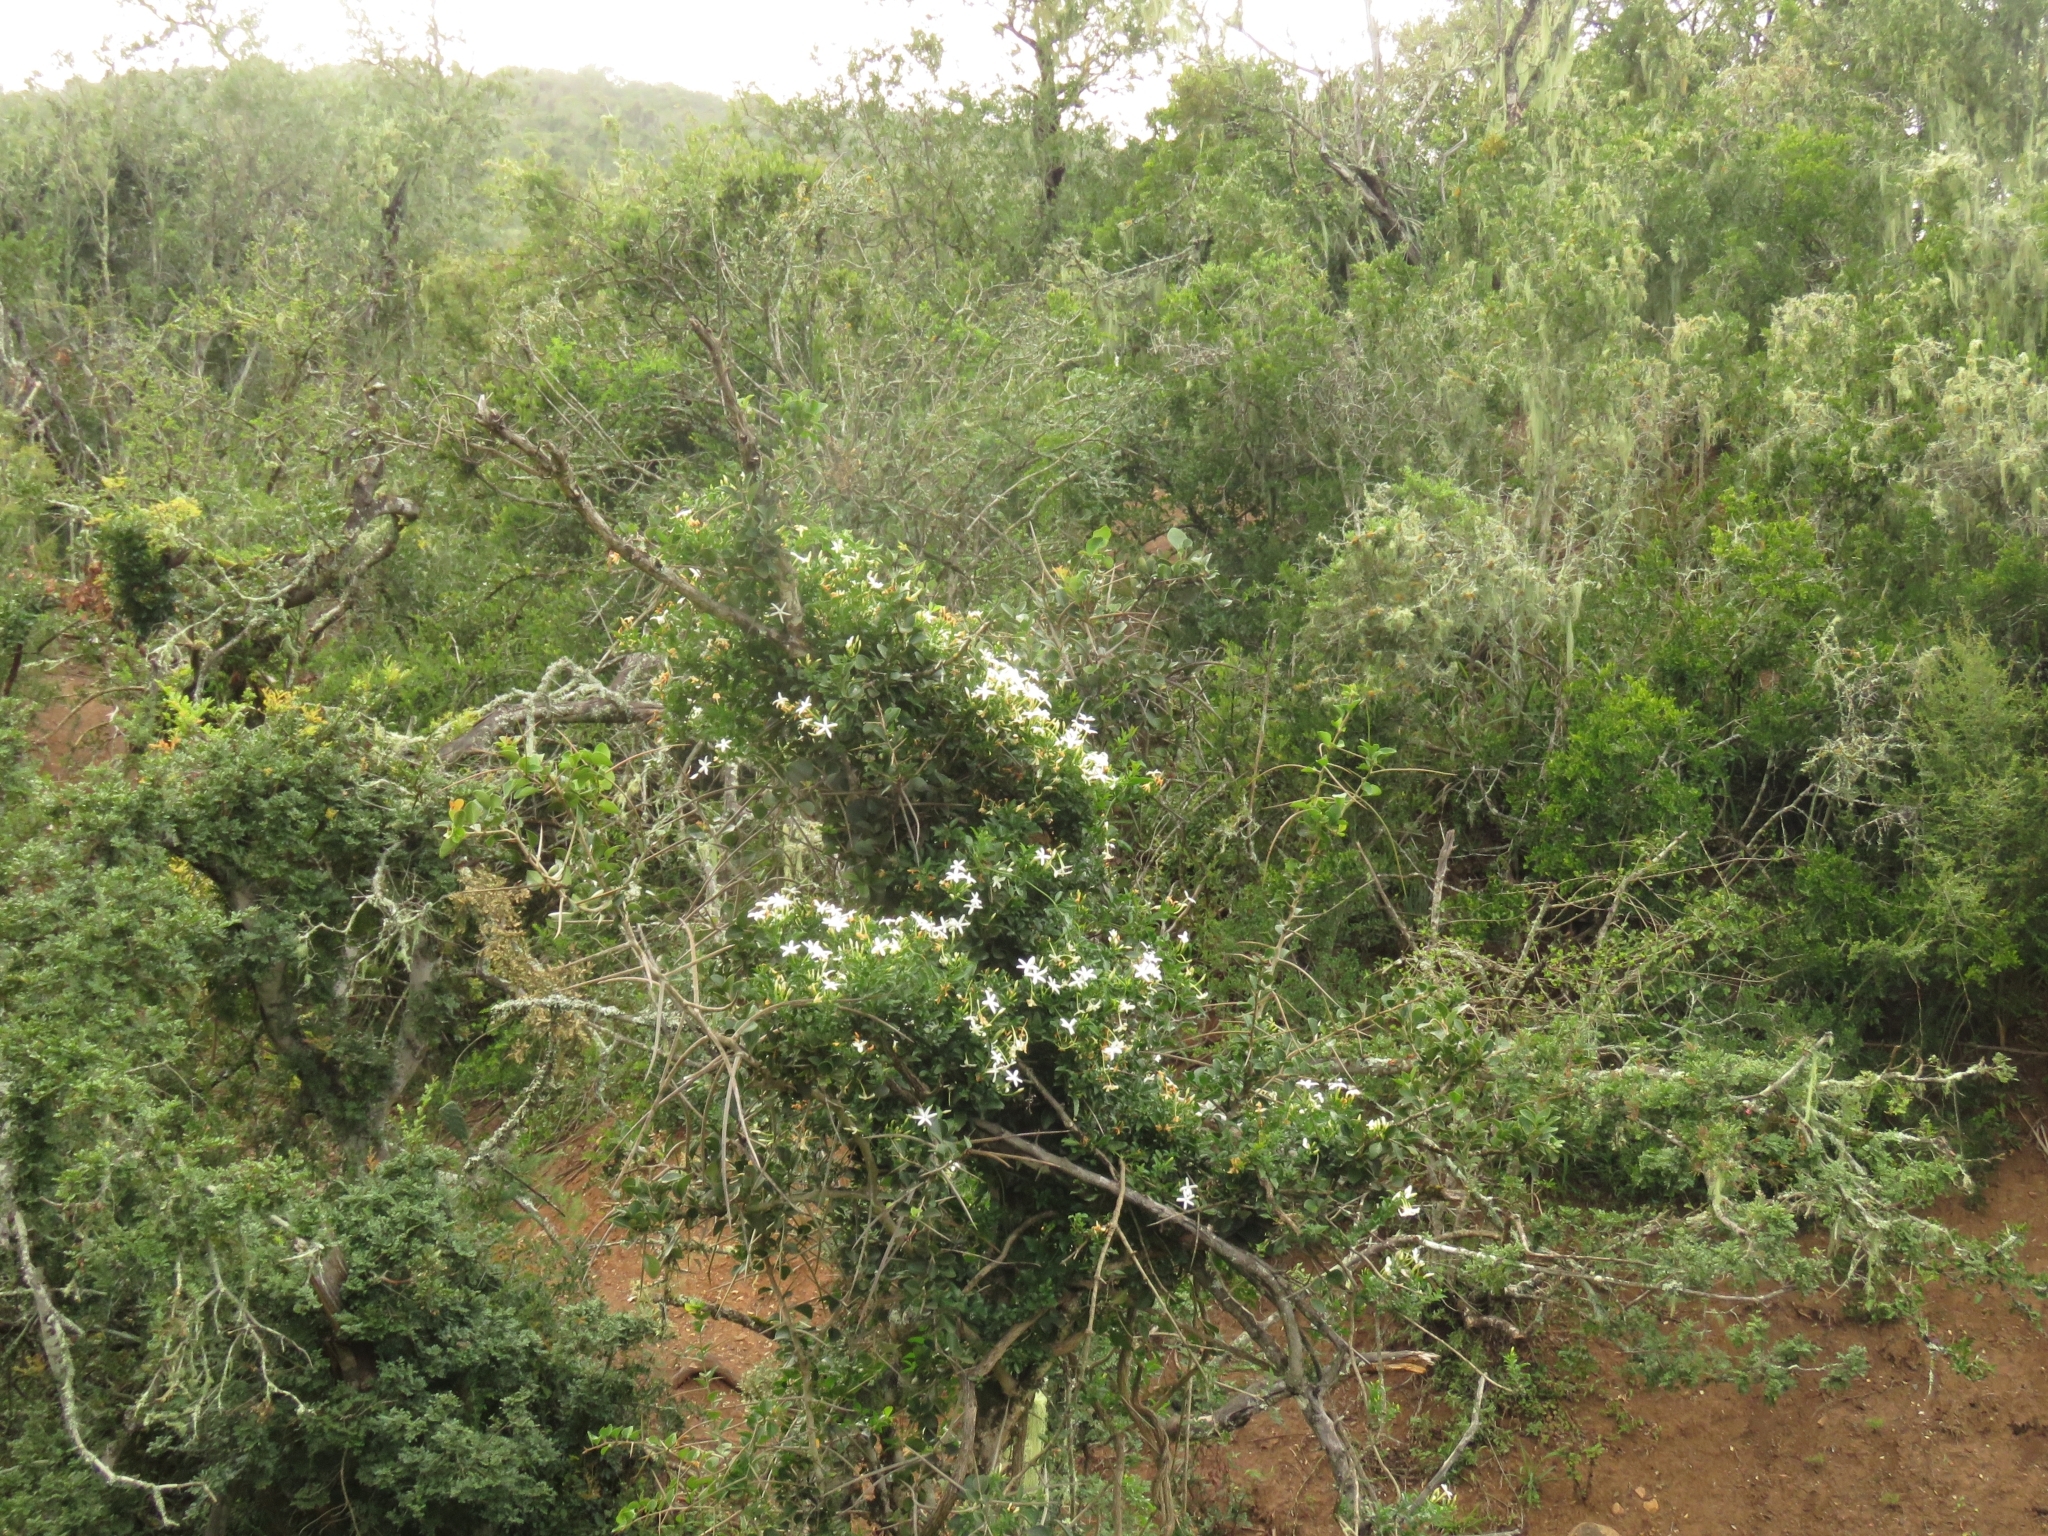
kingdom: Plantae
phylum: Tracheophyta
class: Magnoliopsida
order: Lamiales
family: Oleaceae
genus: Jasminum
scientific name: Jasminum angulare
